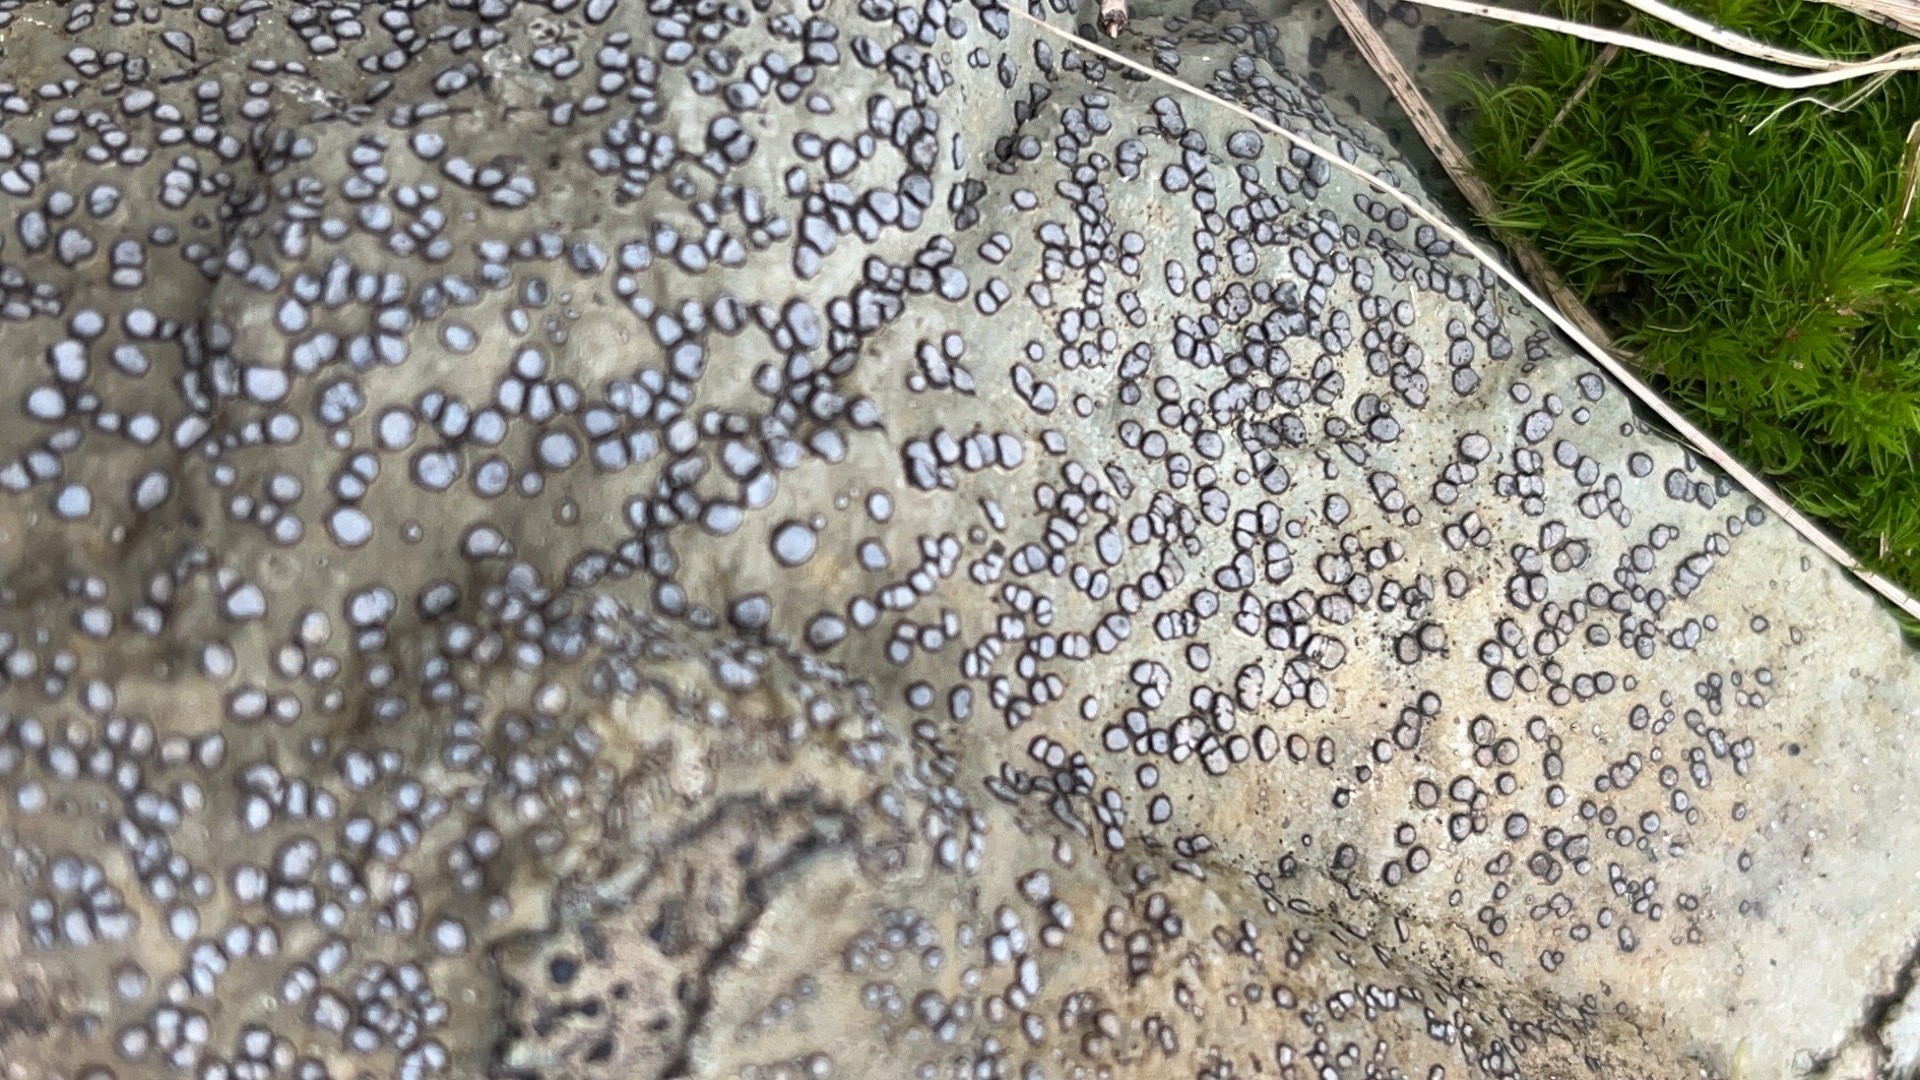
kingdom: Fungi
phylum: Ascomycota
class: Lecanoromycetes
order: Lecideales
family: Lecideaceae
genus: Porpidia
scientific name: Porpidia albocaerulescens
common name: Smokey-eyed boulder lichen
